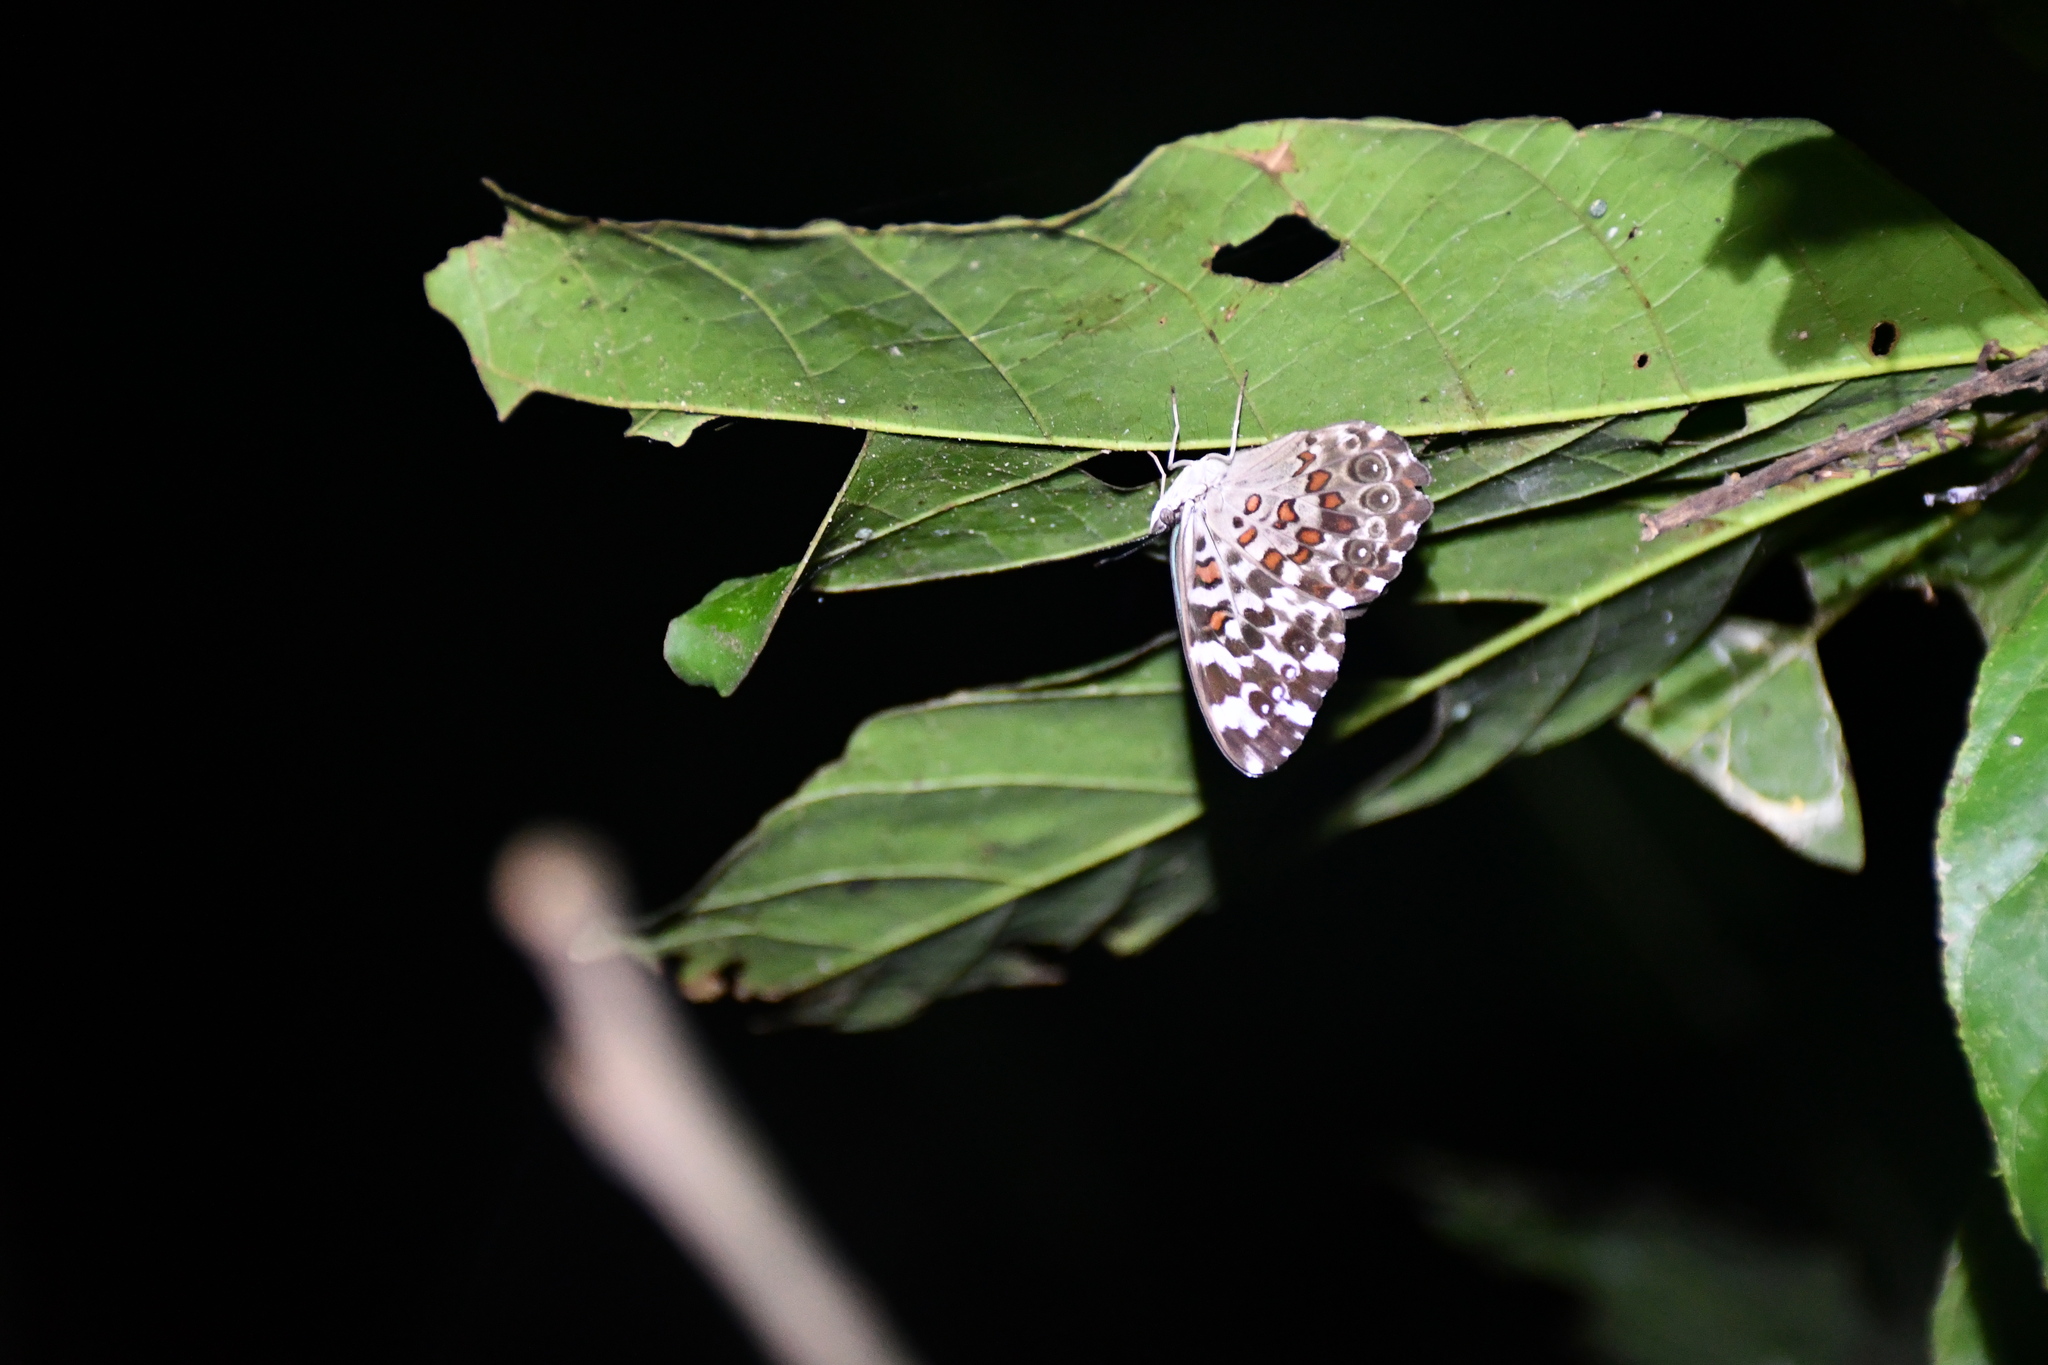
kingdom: Animalia
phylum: Arthropoda
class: Insecta
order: Lepidoptera
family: Nymphalidae
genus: Hamadryas
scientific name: Hamadryas chloe
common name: Amazon cracker
